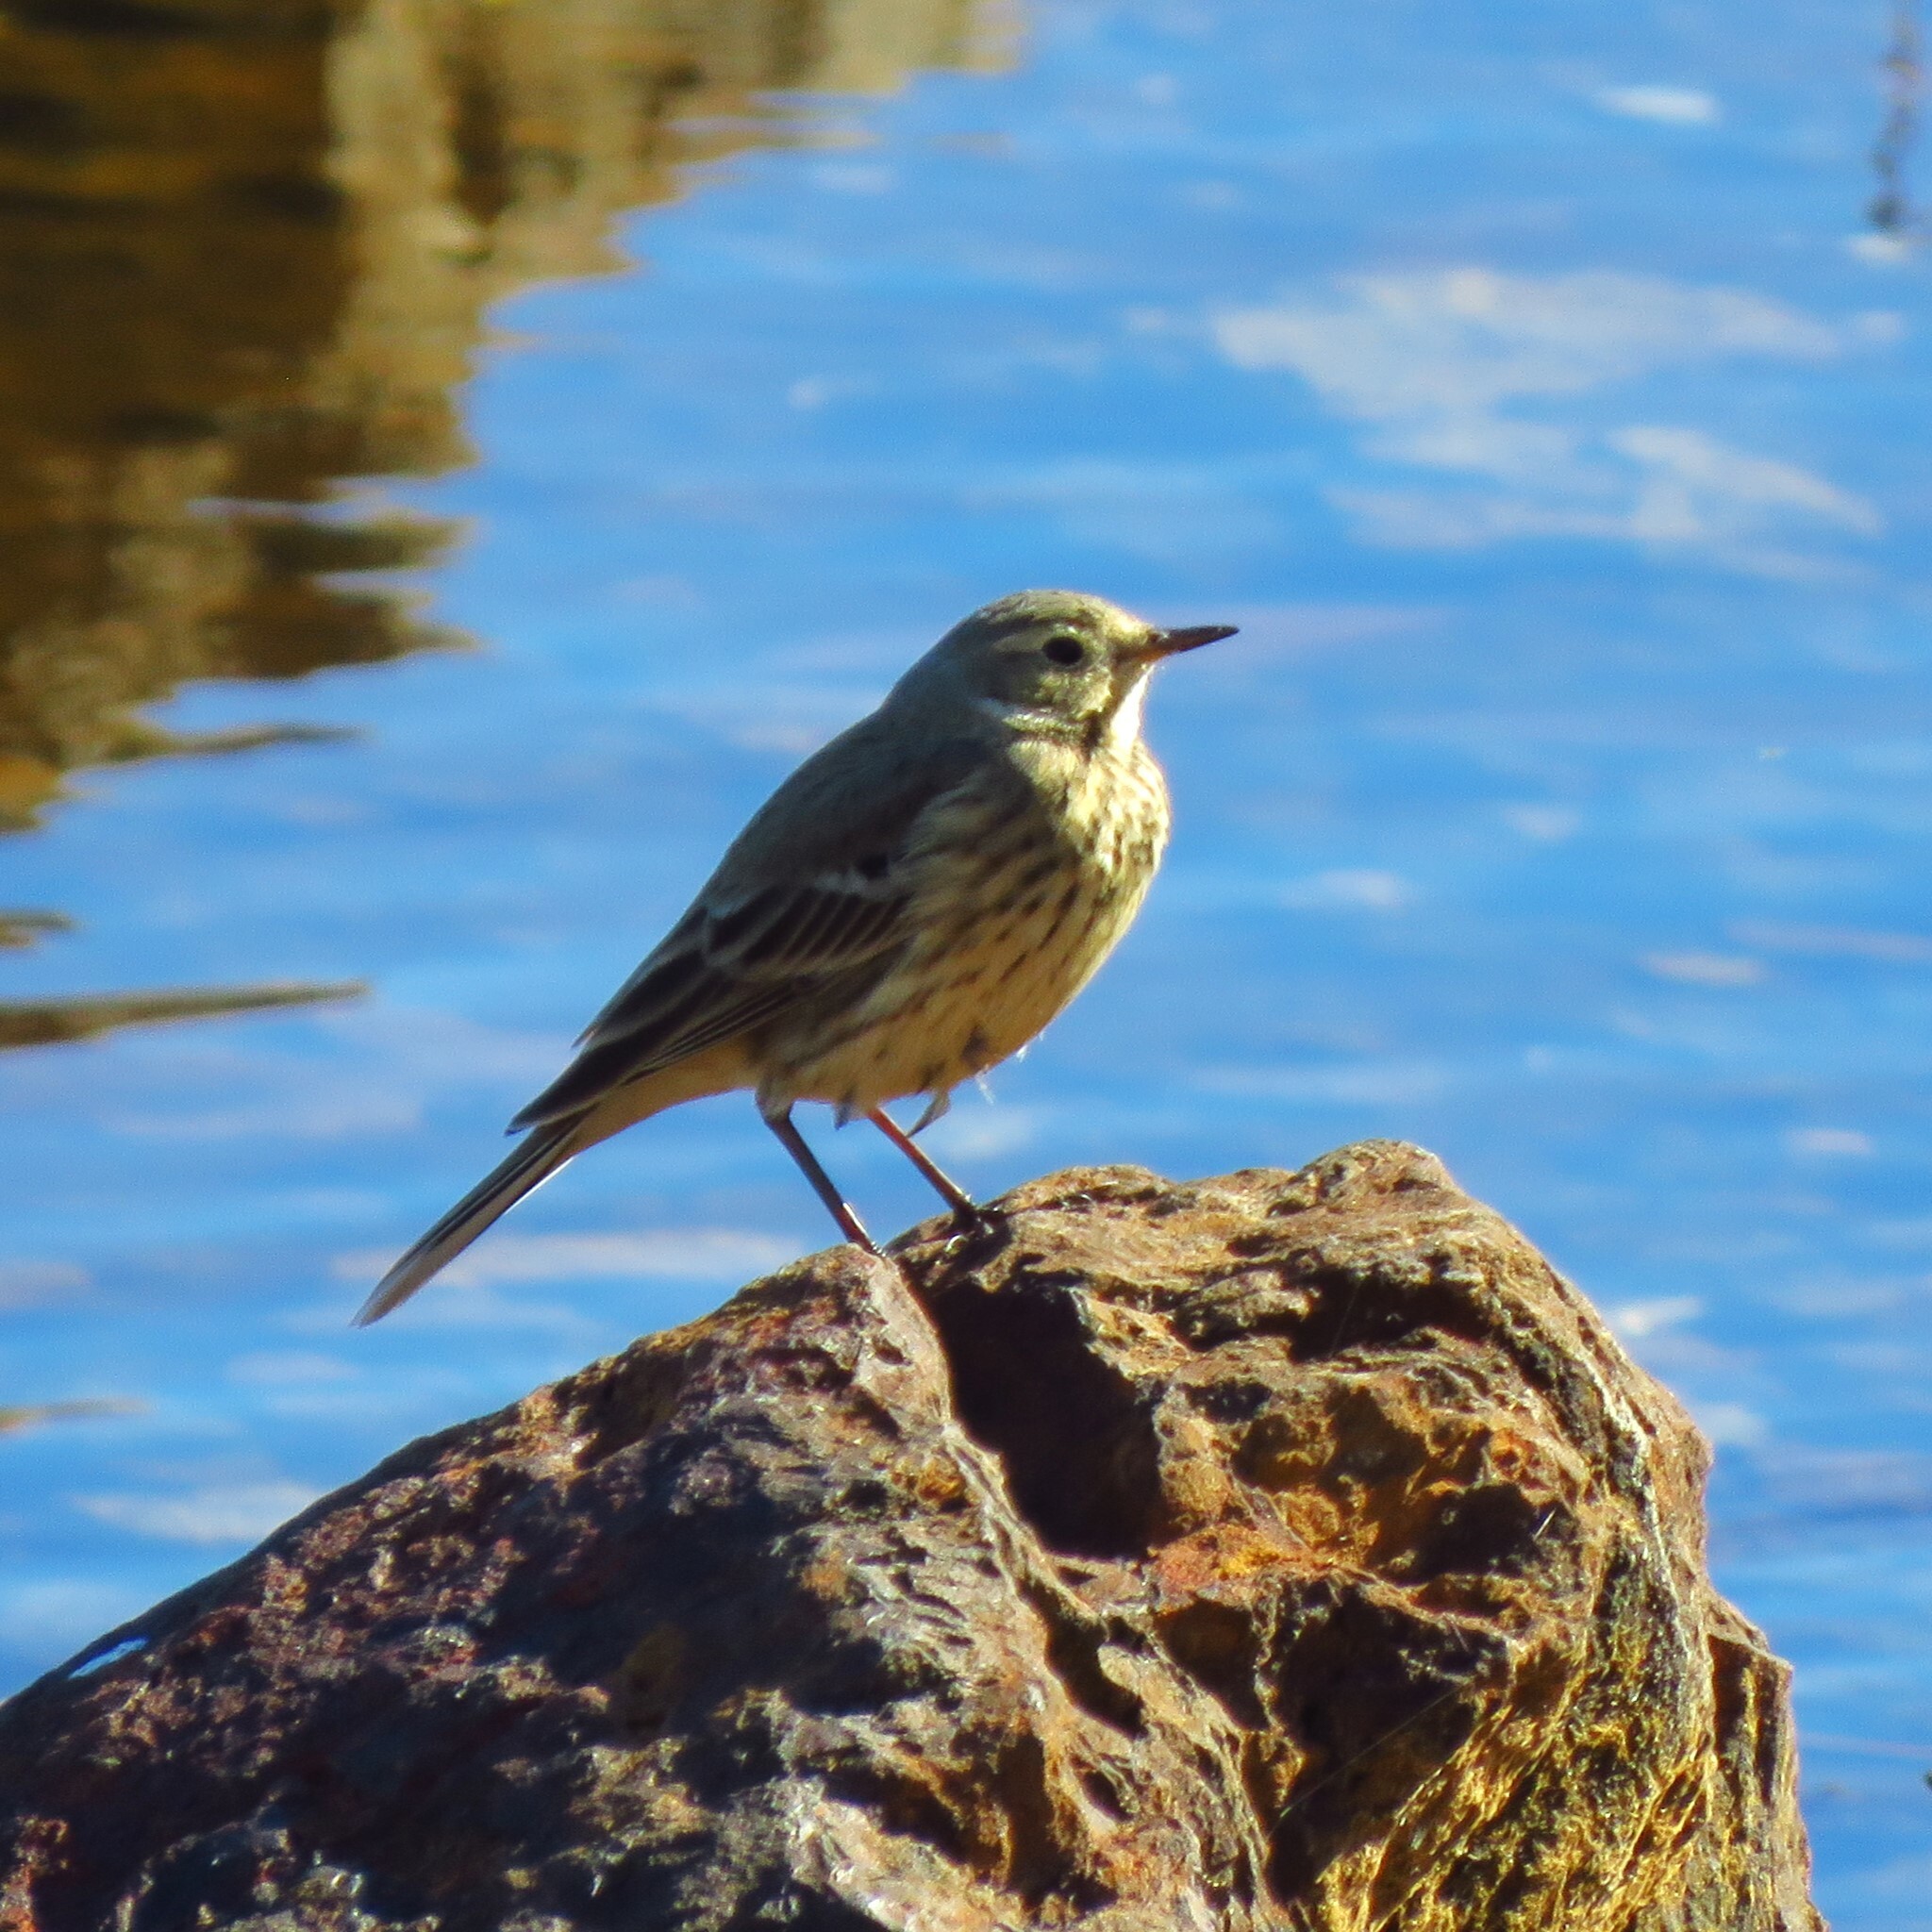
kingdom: Animalia
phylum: Chordata
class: Aves
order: Passeriformes
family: Motacillidae
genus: Anthus
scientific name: Anthus rubescens
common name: Buff-bellied pipit
